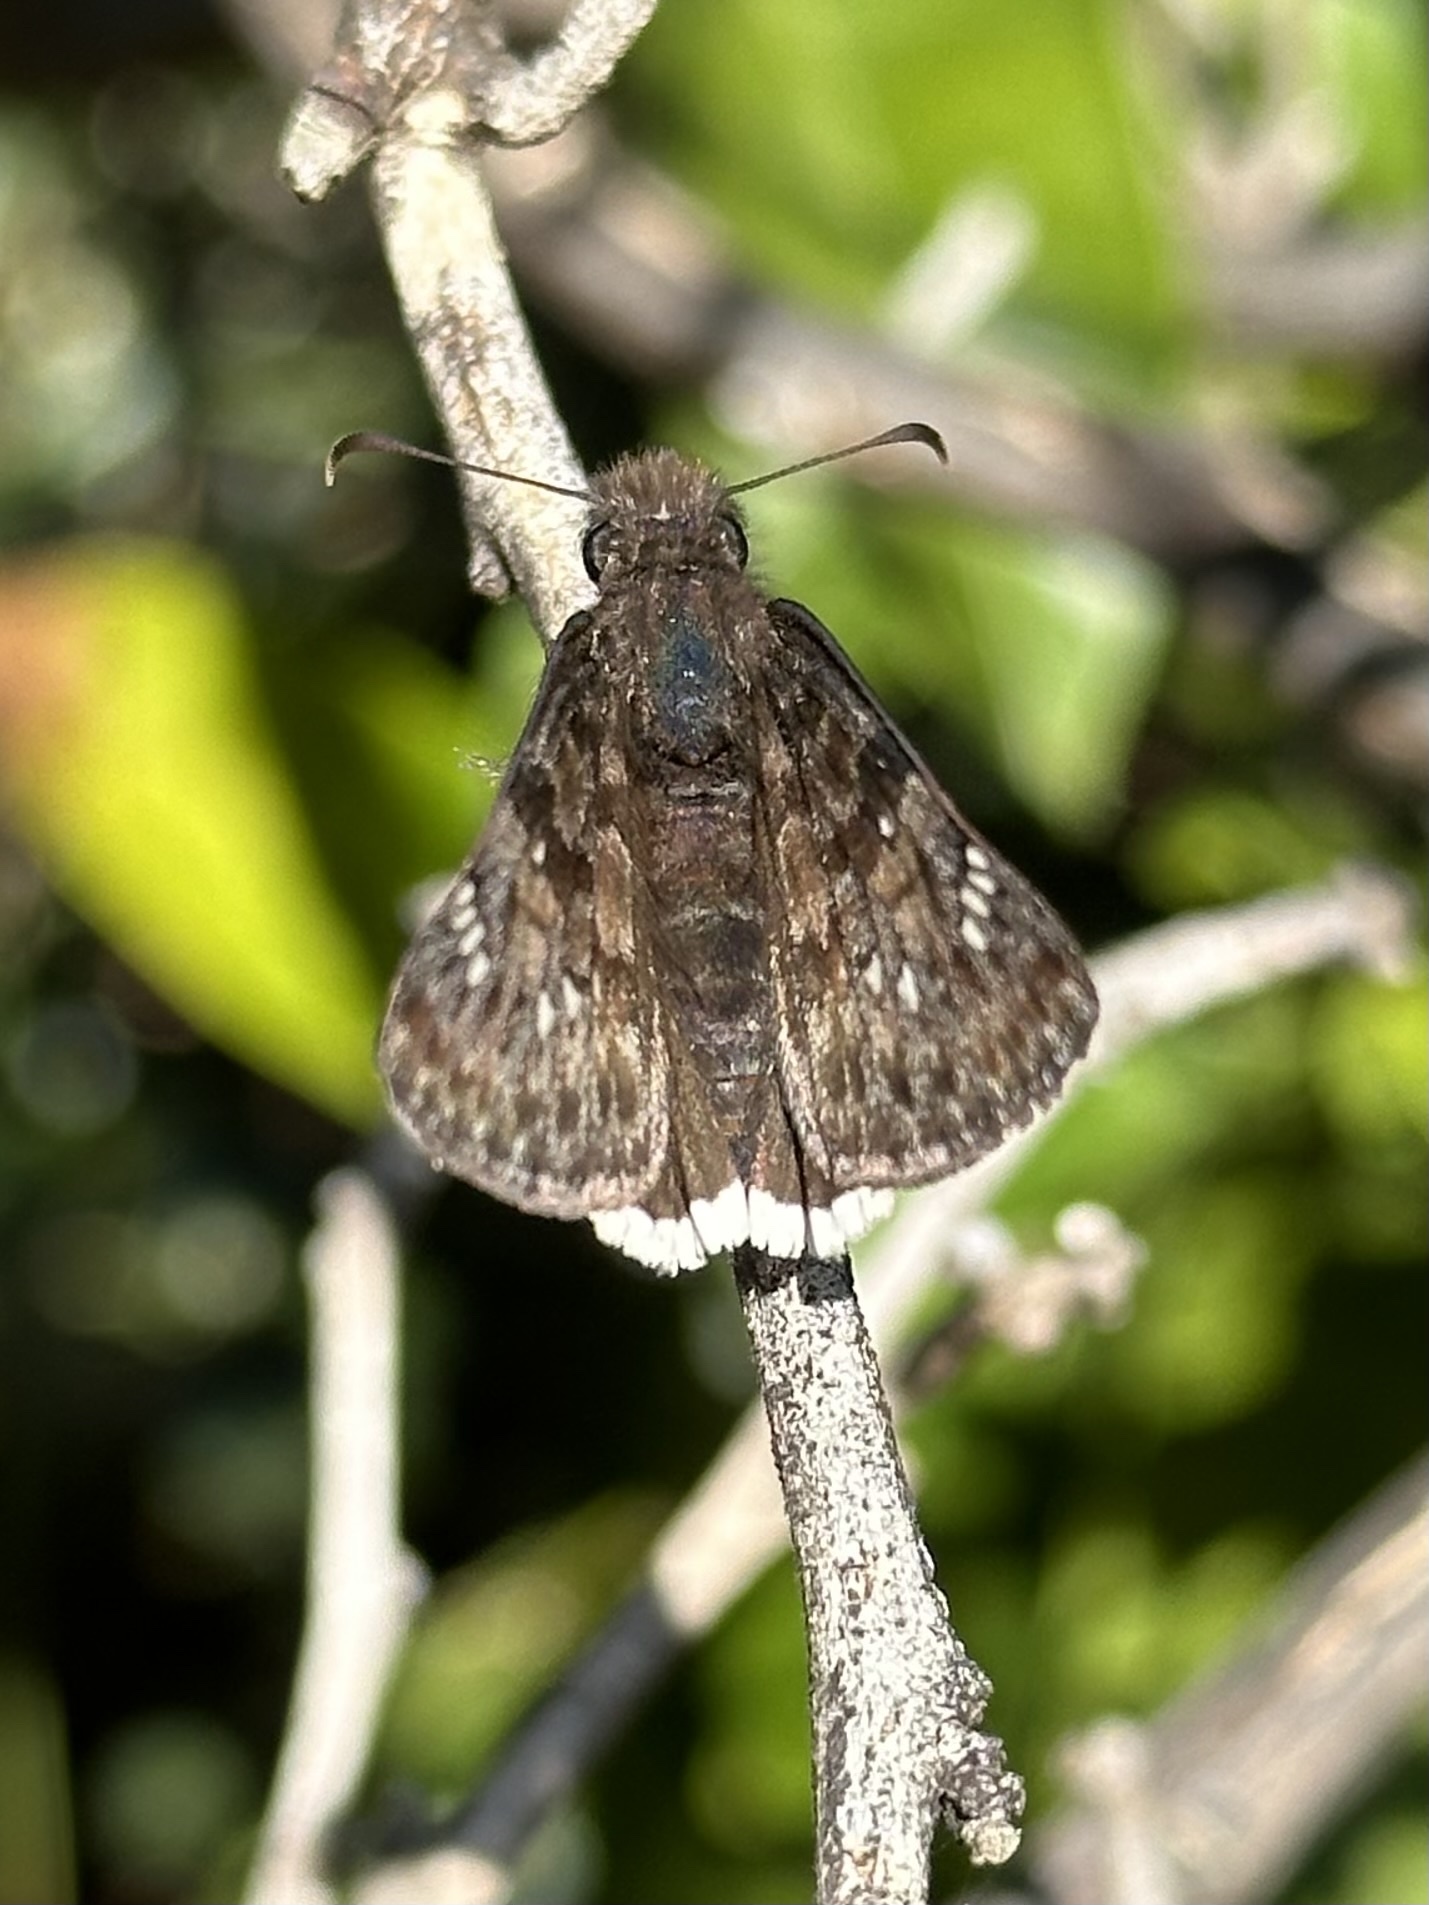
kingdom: Animalia
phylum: Arthropoda
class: Insecta
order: Lepidoptera
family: Hesperiidae
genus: Erynnis
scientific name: Erynnis tristis
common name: Mournful duskywing
